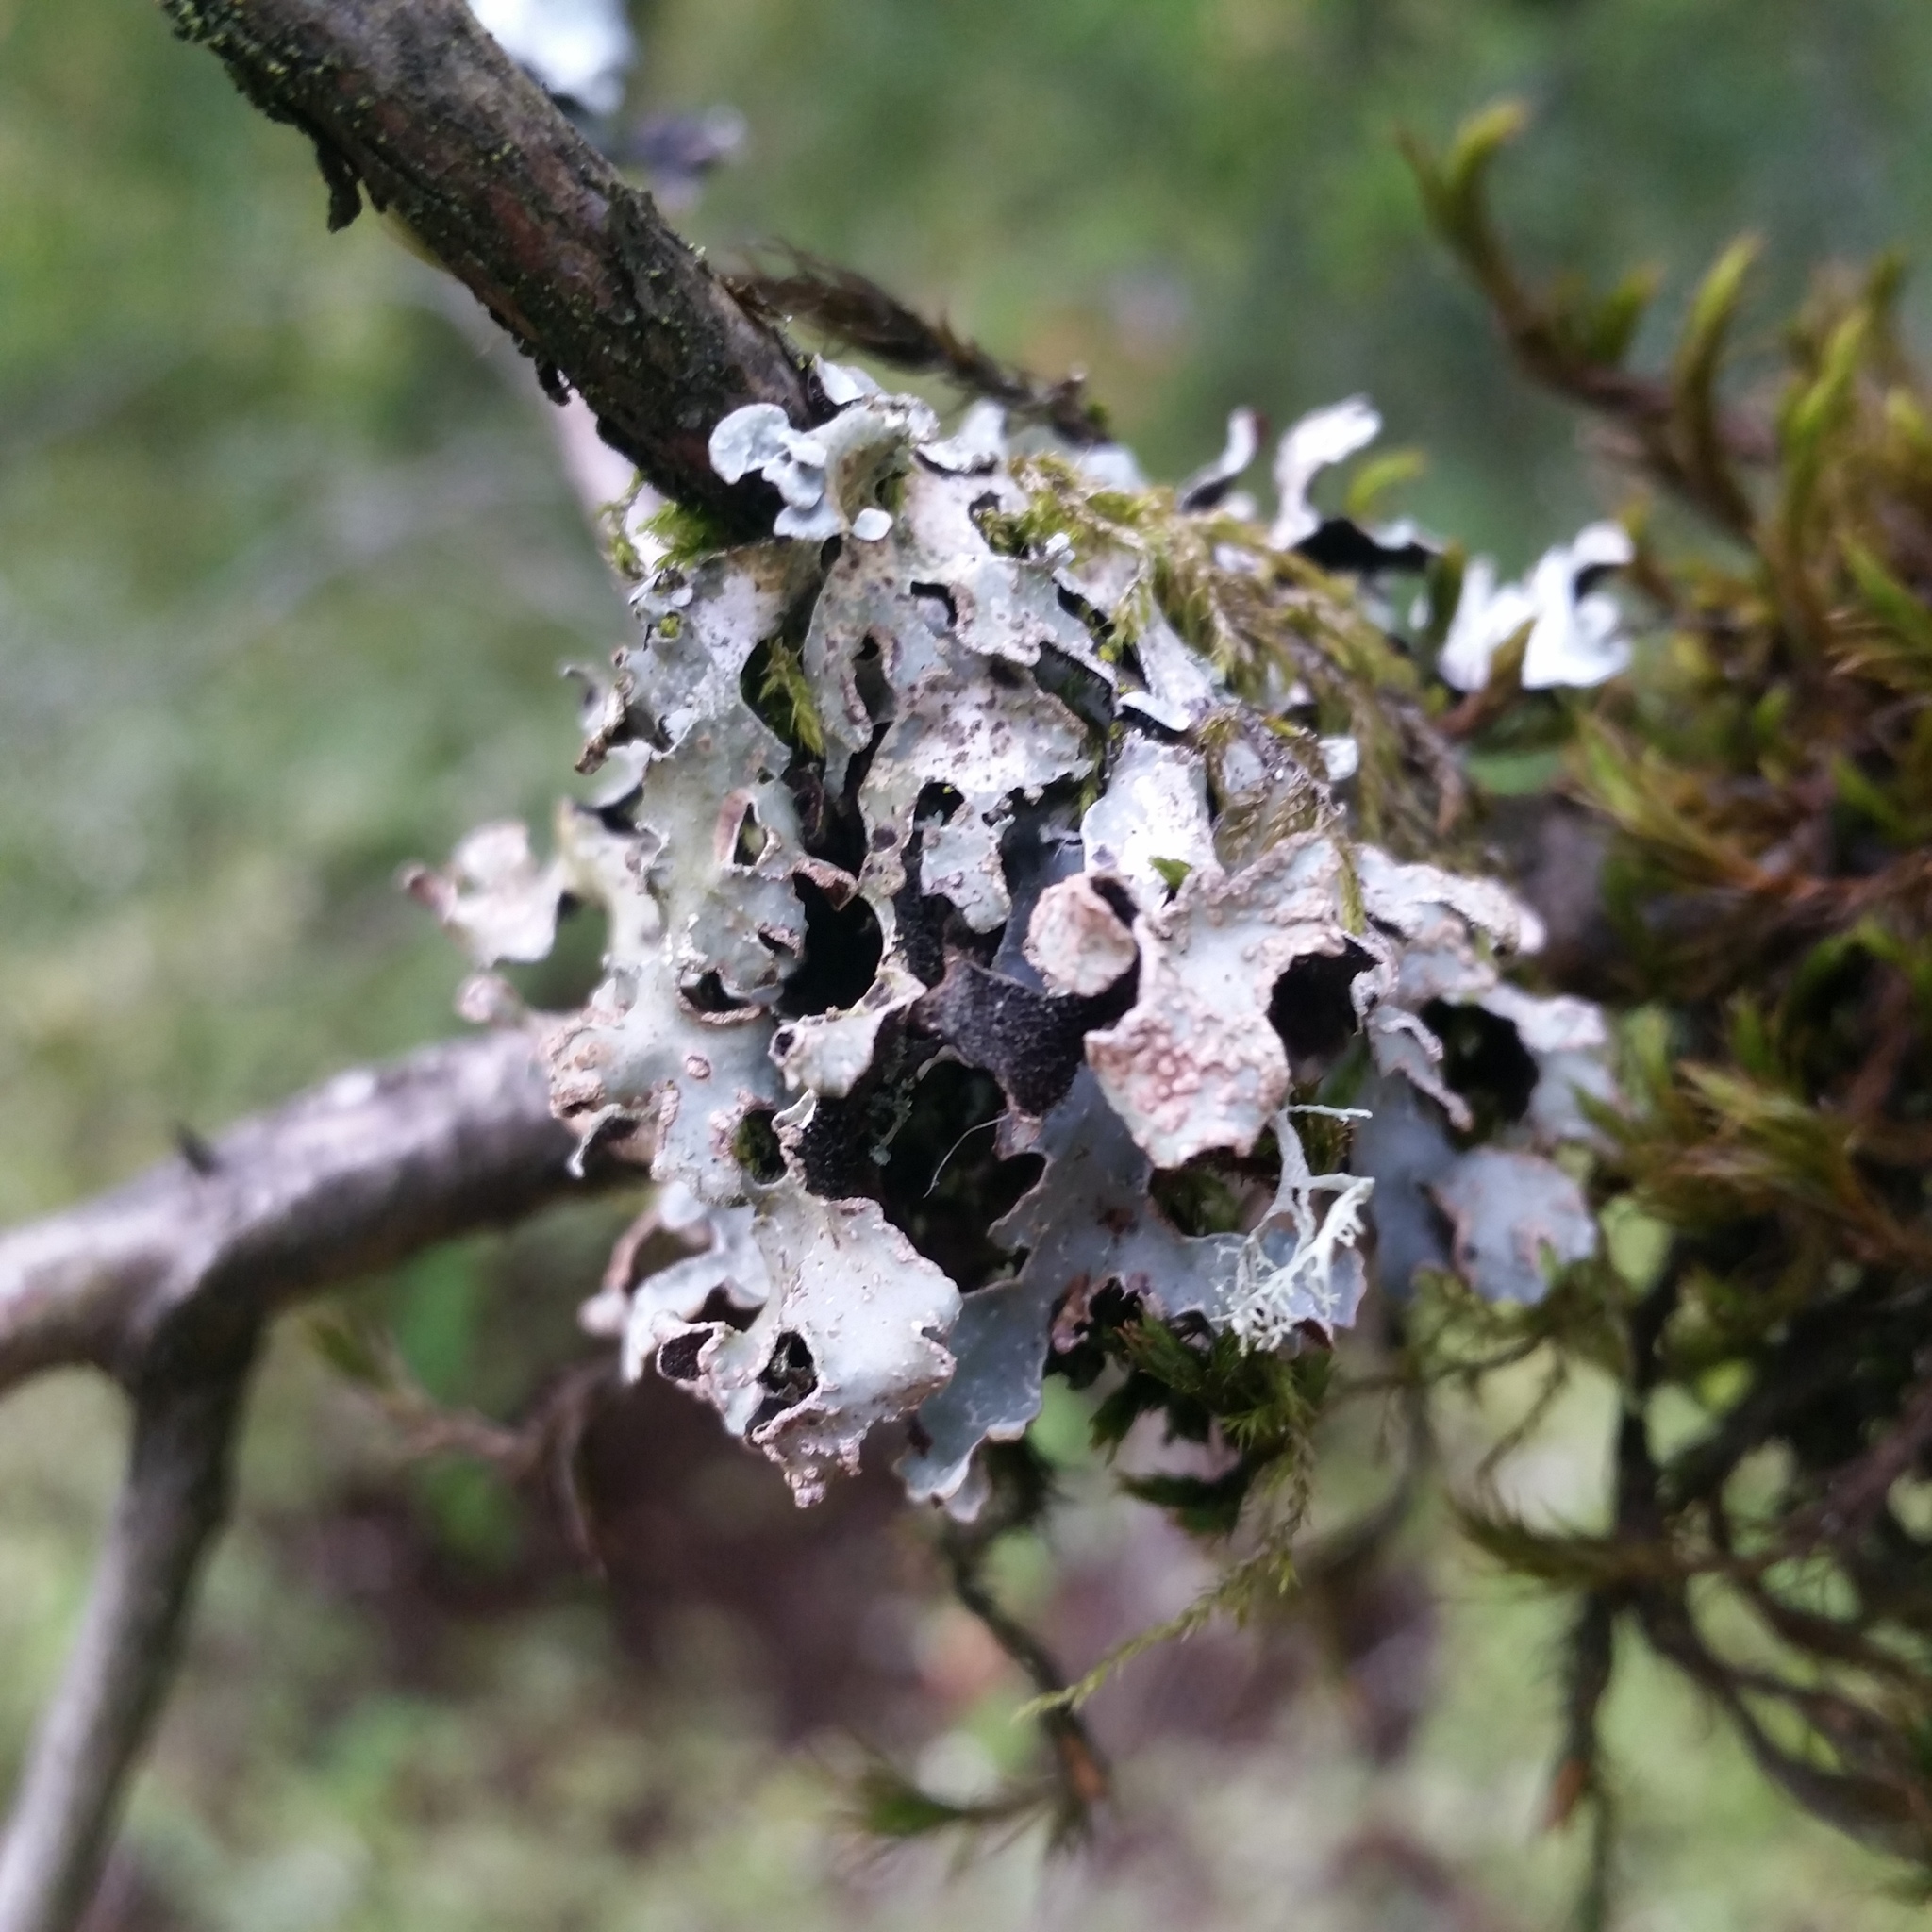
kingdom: Fungi
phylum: Ascomycota
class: Lecanoromycetes
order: Lecanorales
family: Parmeliaceae
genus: Parmelia
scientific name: Parmelia sulcata
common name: Netted shield lichen
